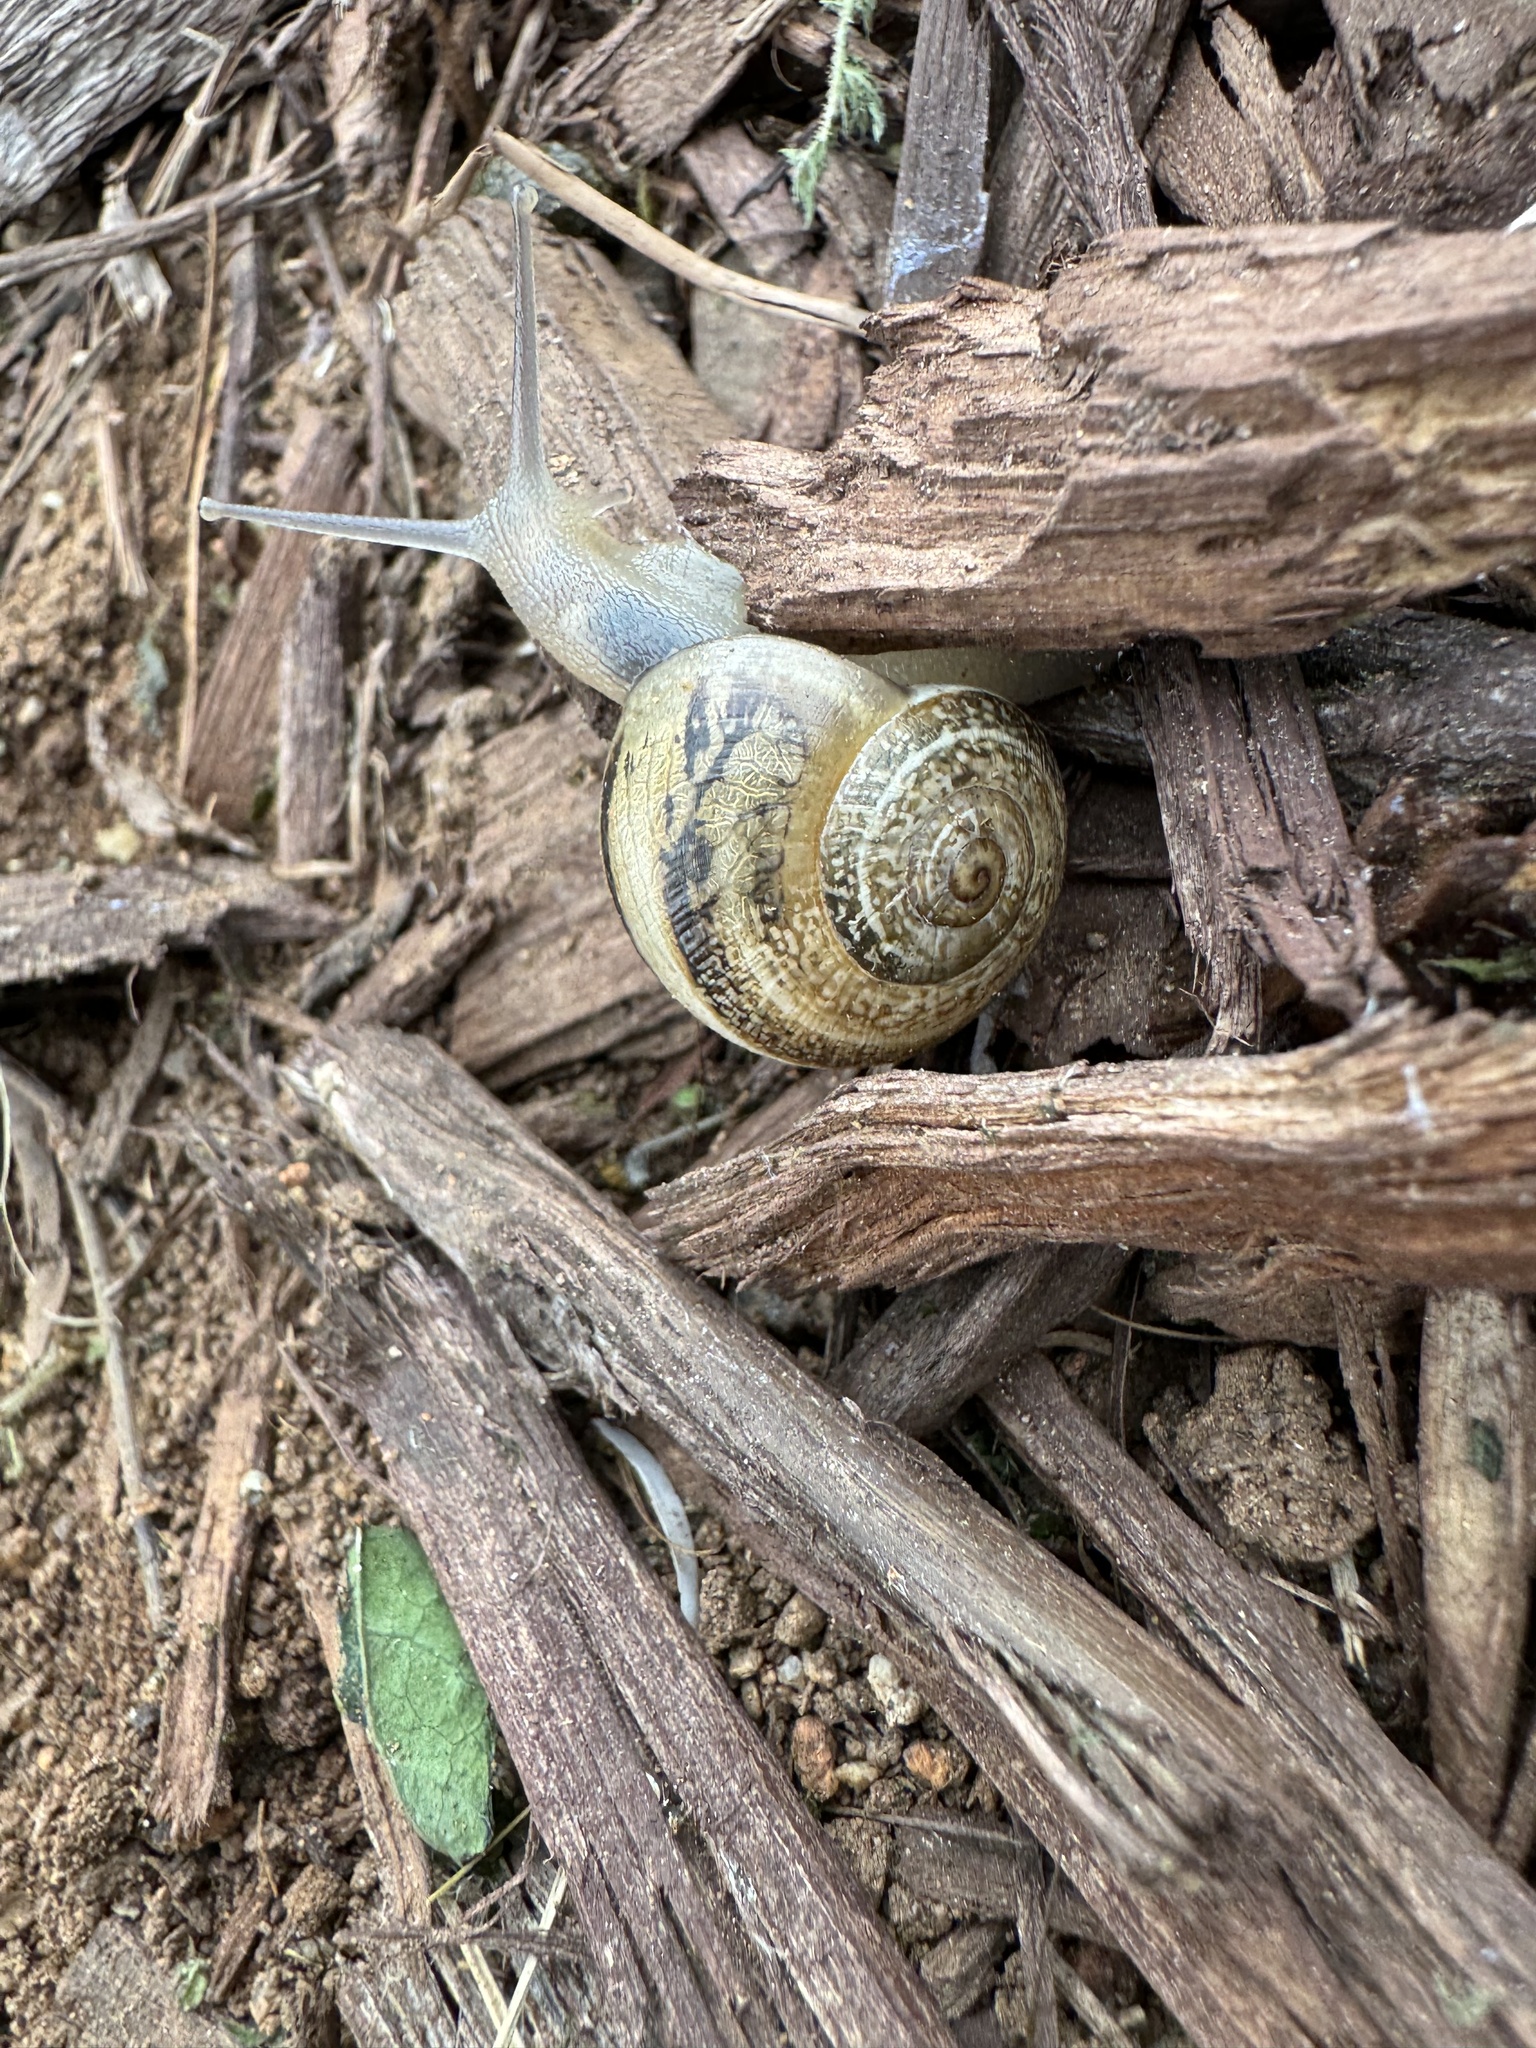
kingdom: Animalia
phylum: Mollusca
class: Gastropoda
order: Stylommatophora
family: Helicidae
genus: Otala
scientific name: Otala lactea
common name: Milk snail
